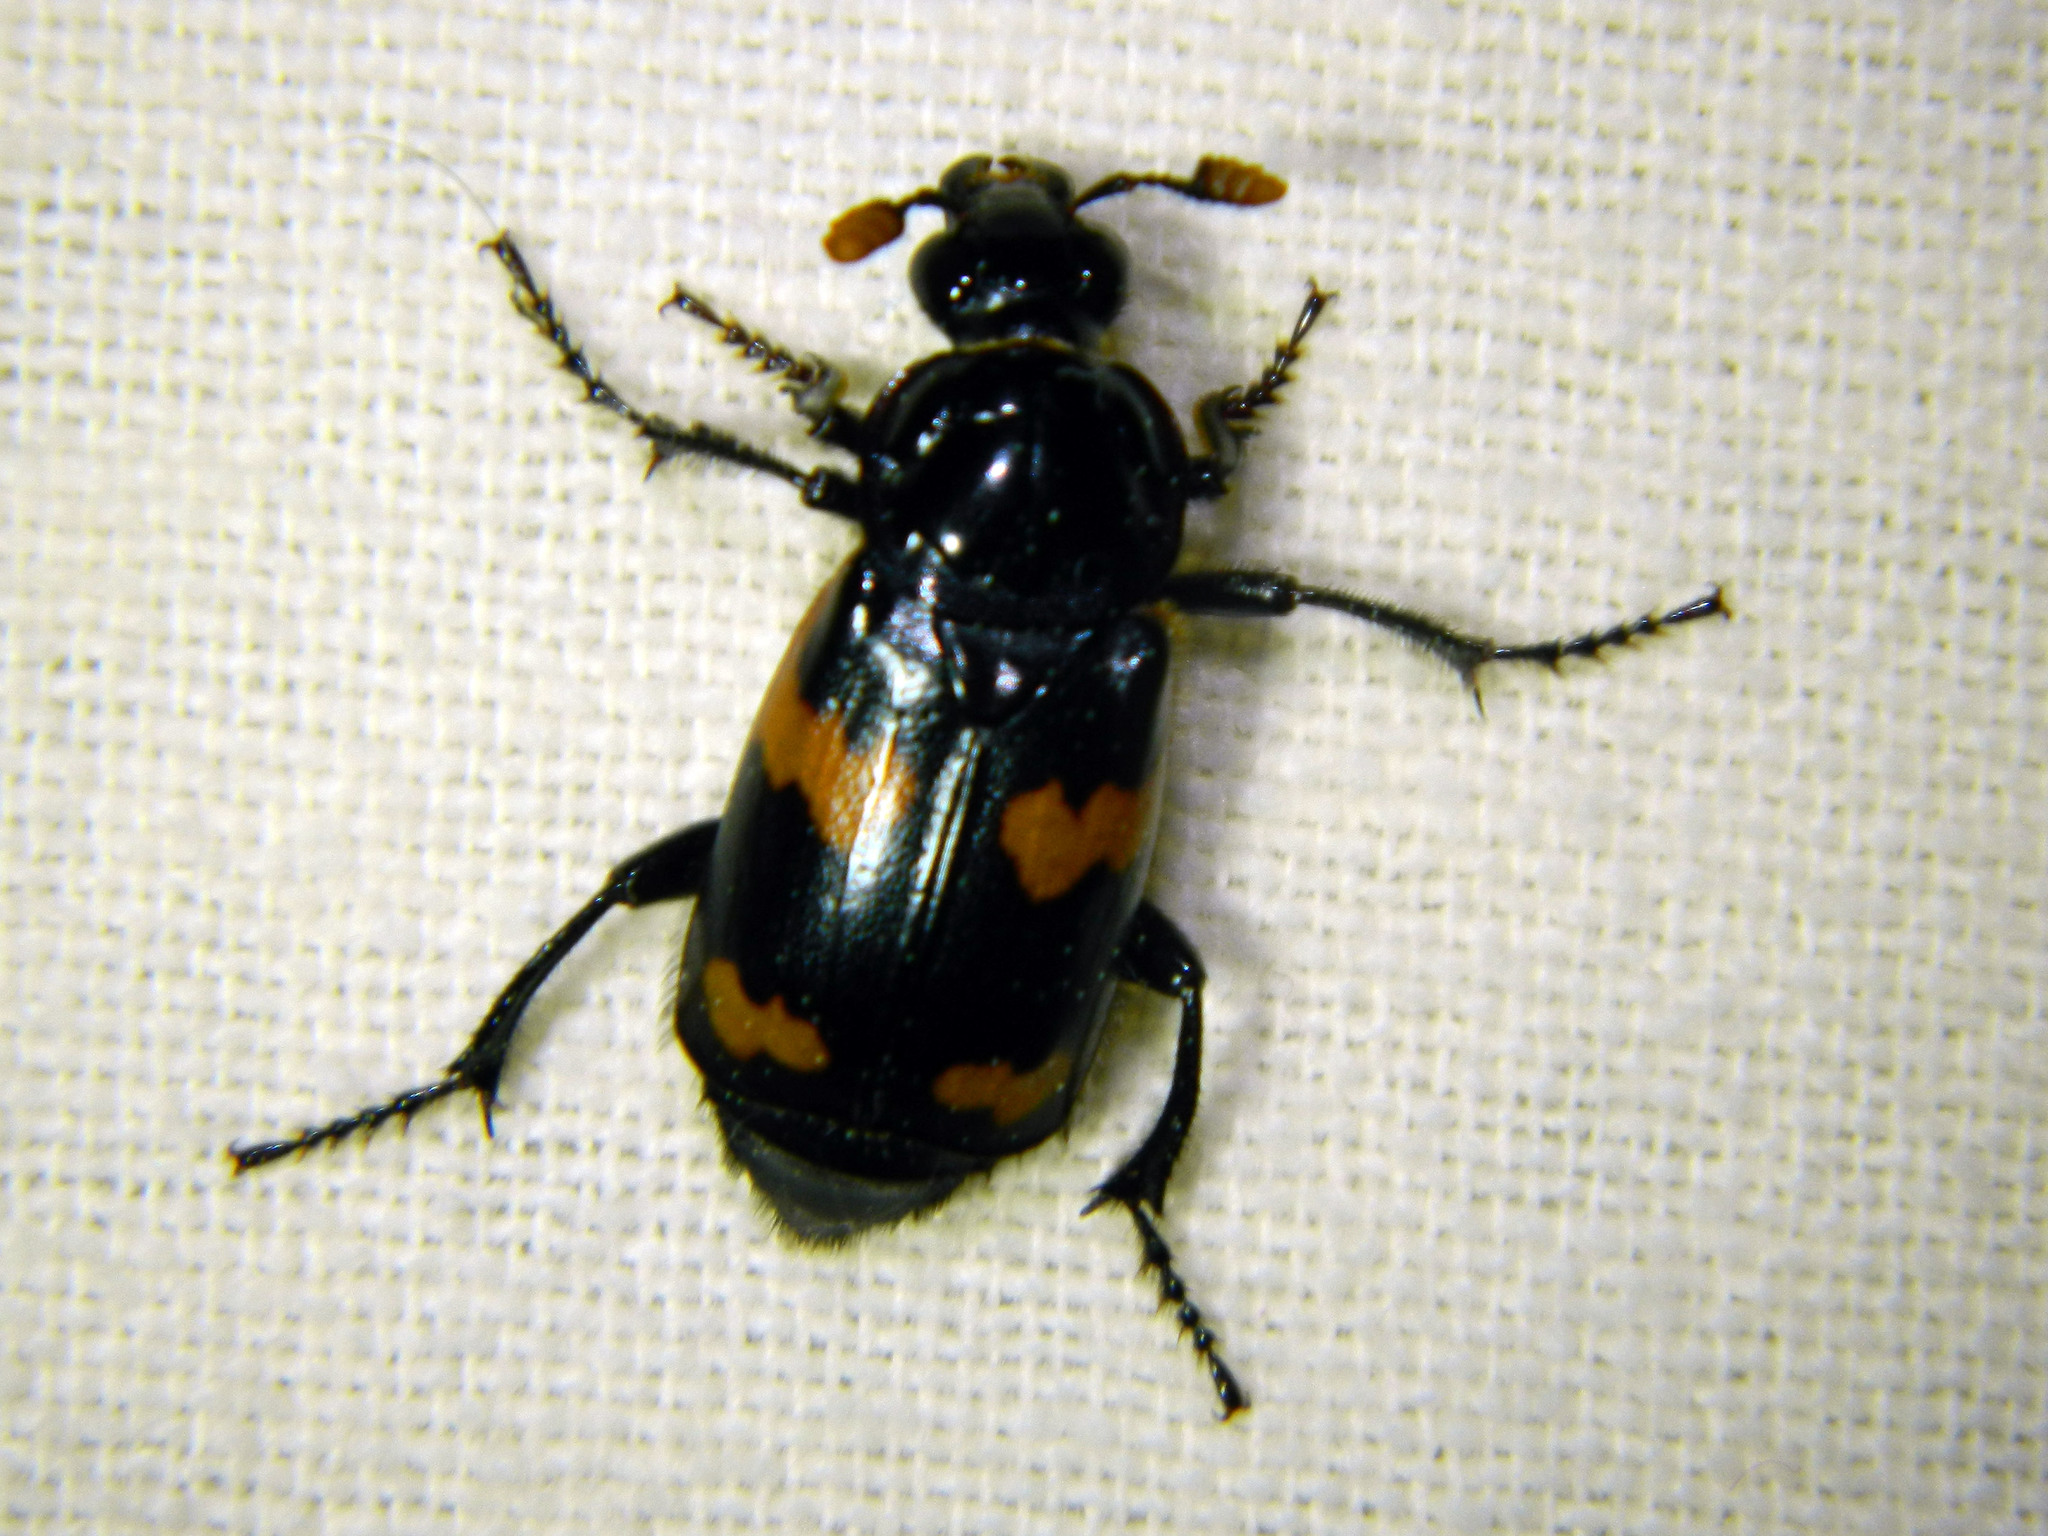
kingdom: Animalia
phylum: Arthropoda
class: Insecta
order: Coleoptera
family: Staphylinidae
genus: Nicrophorus
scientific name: Nicrophorus sayi
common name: Say's burying beetle
